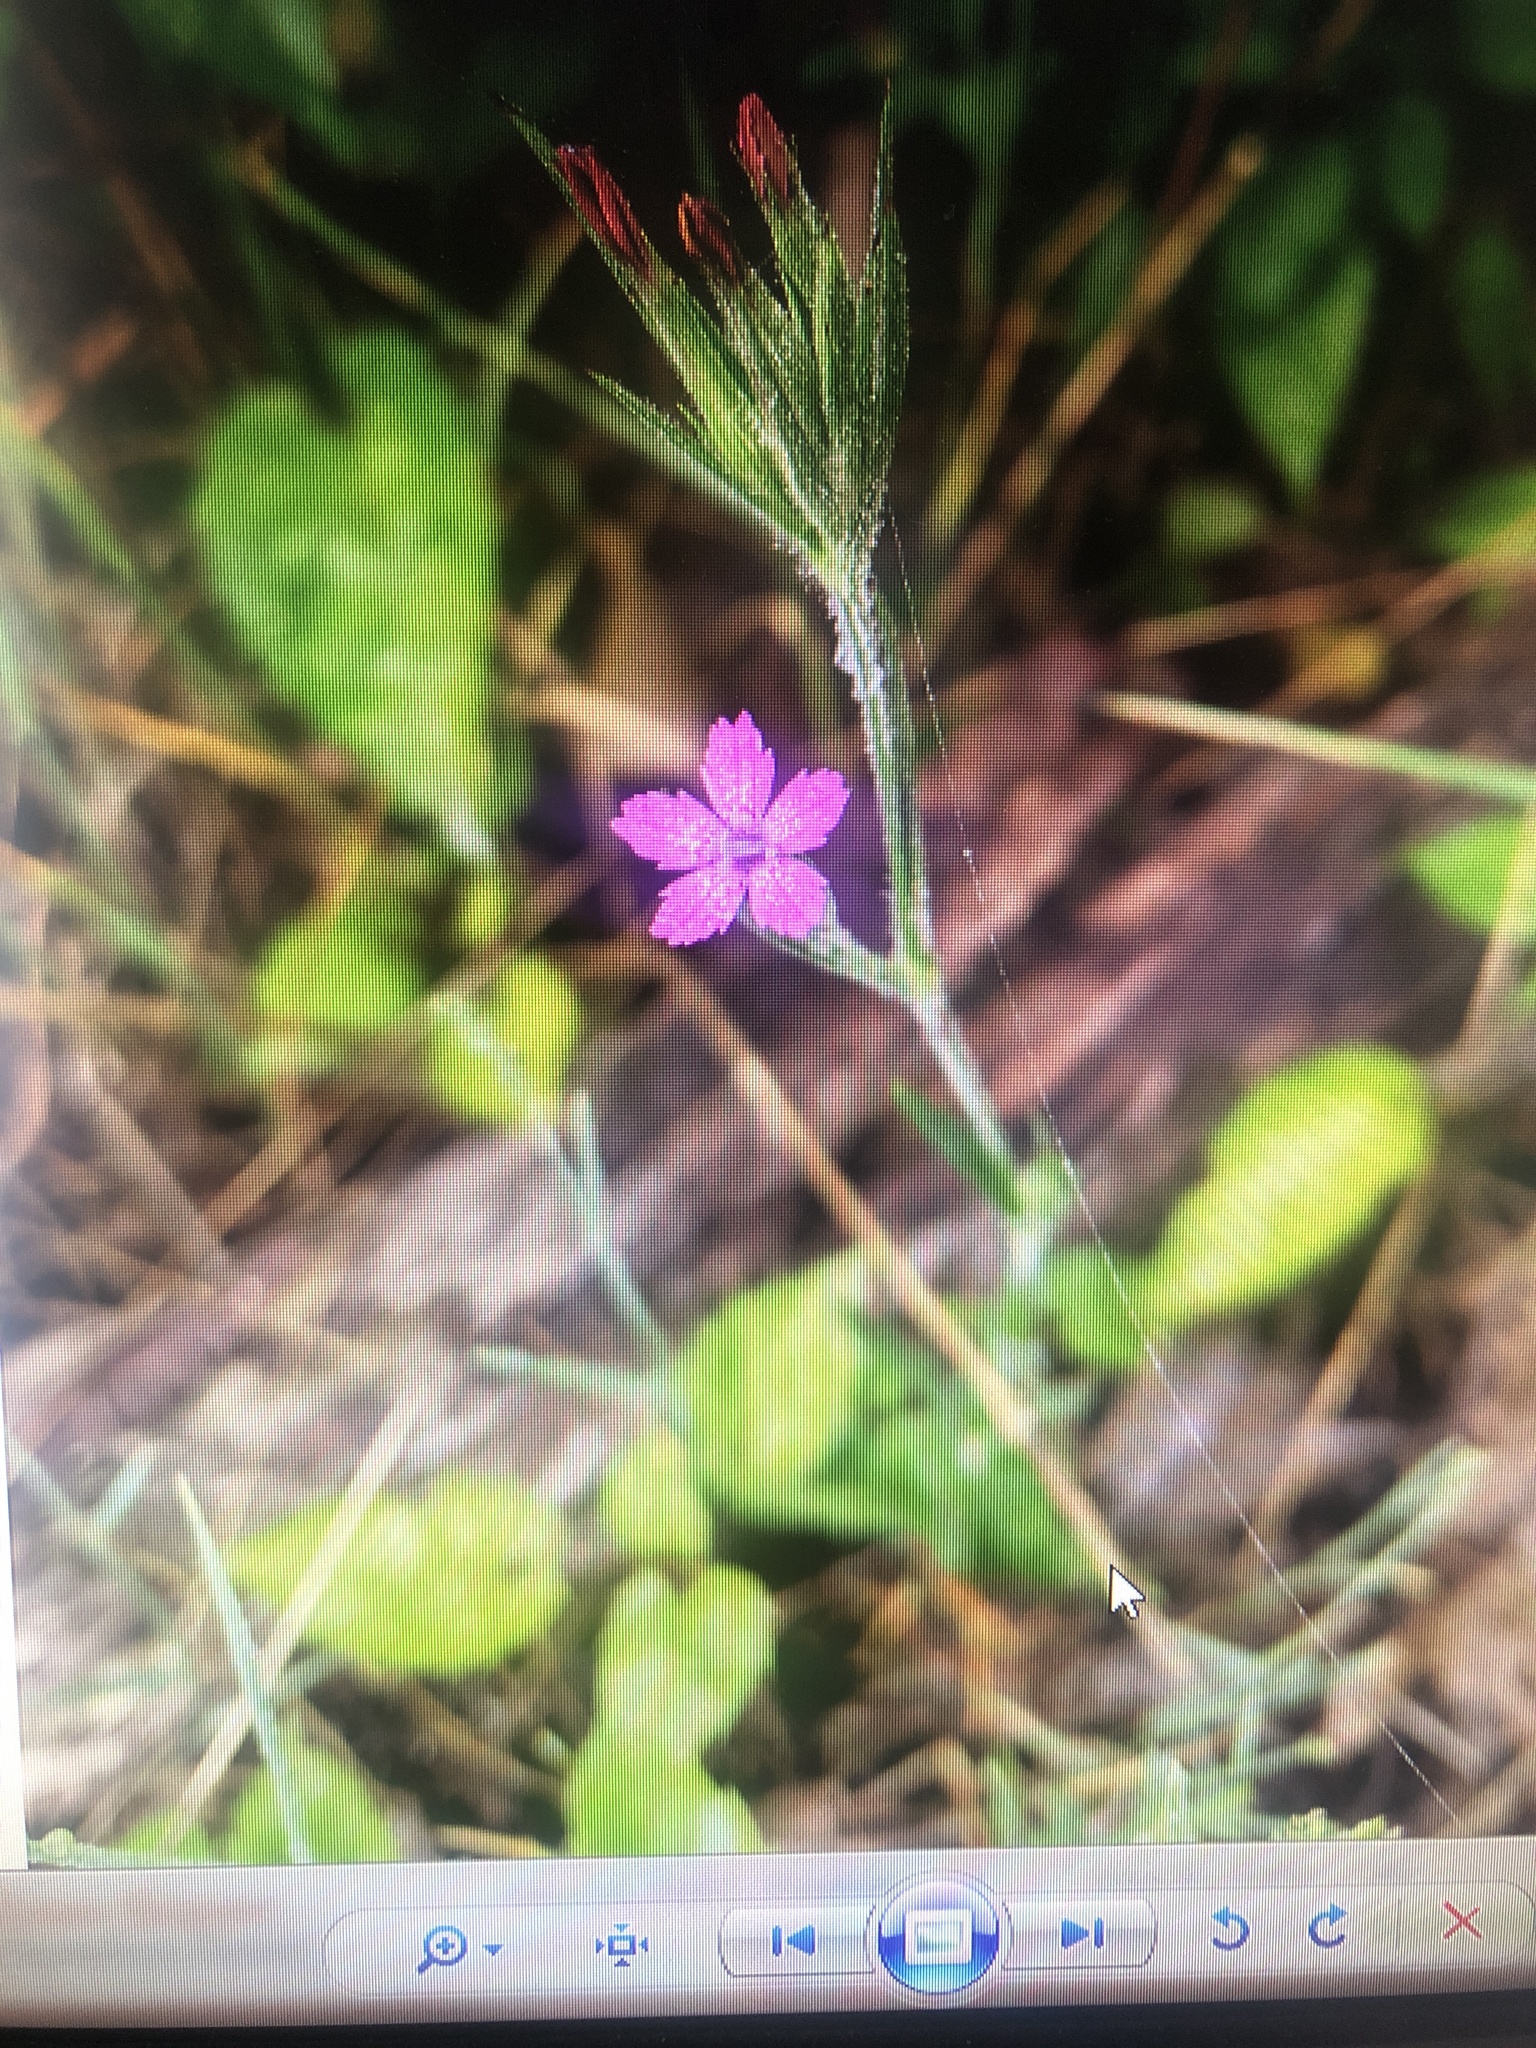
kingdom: Plantae
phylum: Tracheophyta
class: Magnoliopsida
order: Caryophyllales
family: Caryophyllaceae
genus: Dianthus
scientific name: Dianthus armeria
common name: Deptford pink
